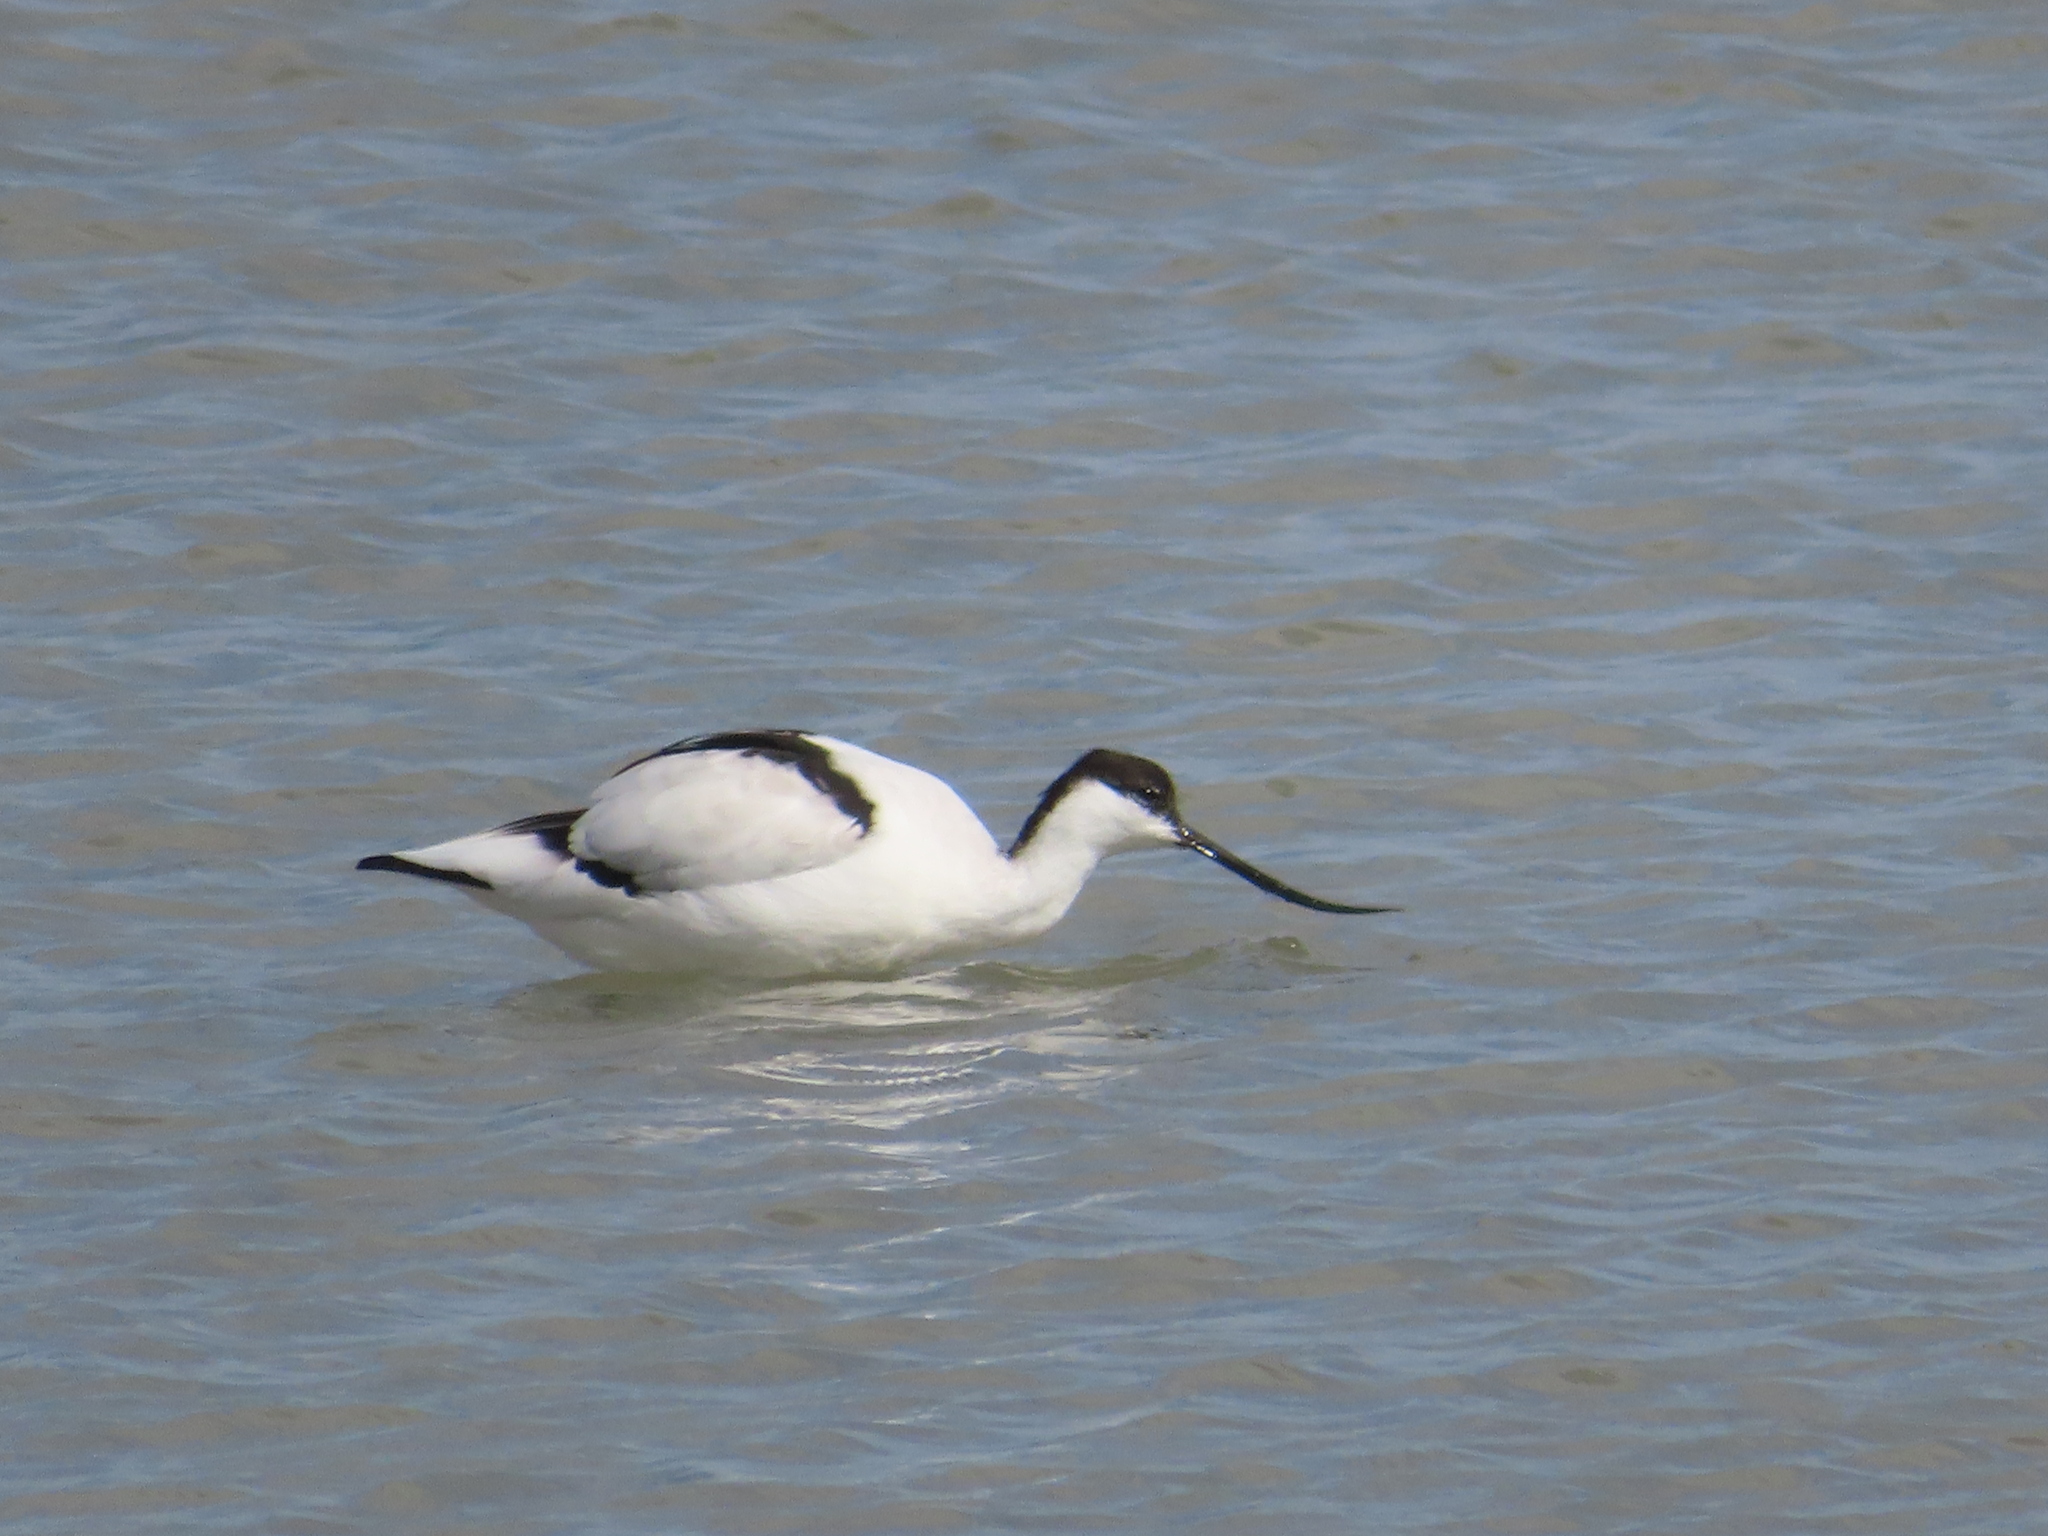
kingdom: Animalia
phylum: Chordata
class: Aves
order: Charadriiformes
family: Recurvirostridae
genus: Recurvirostra
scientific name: Recurvirostra avosetta
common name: Pied avocet
